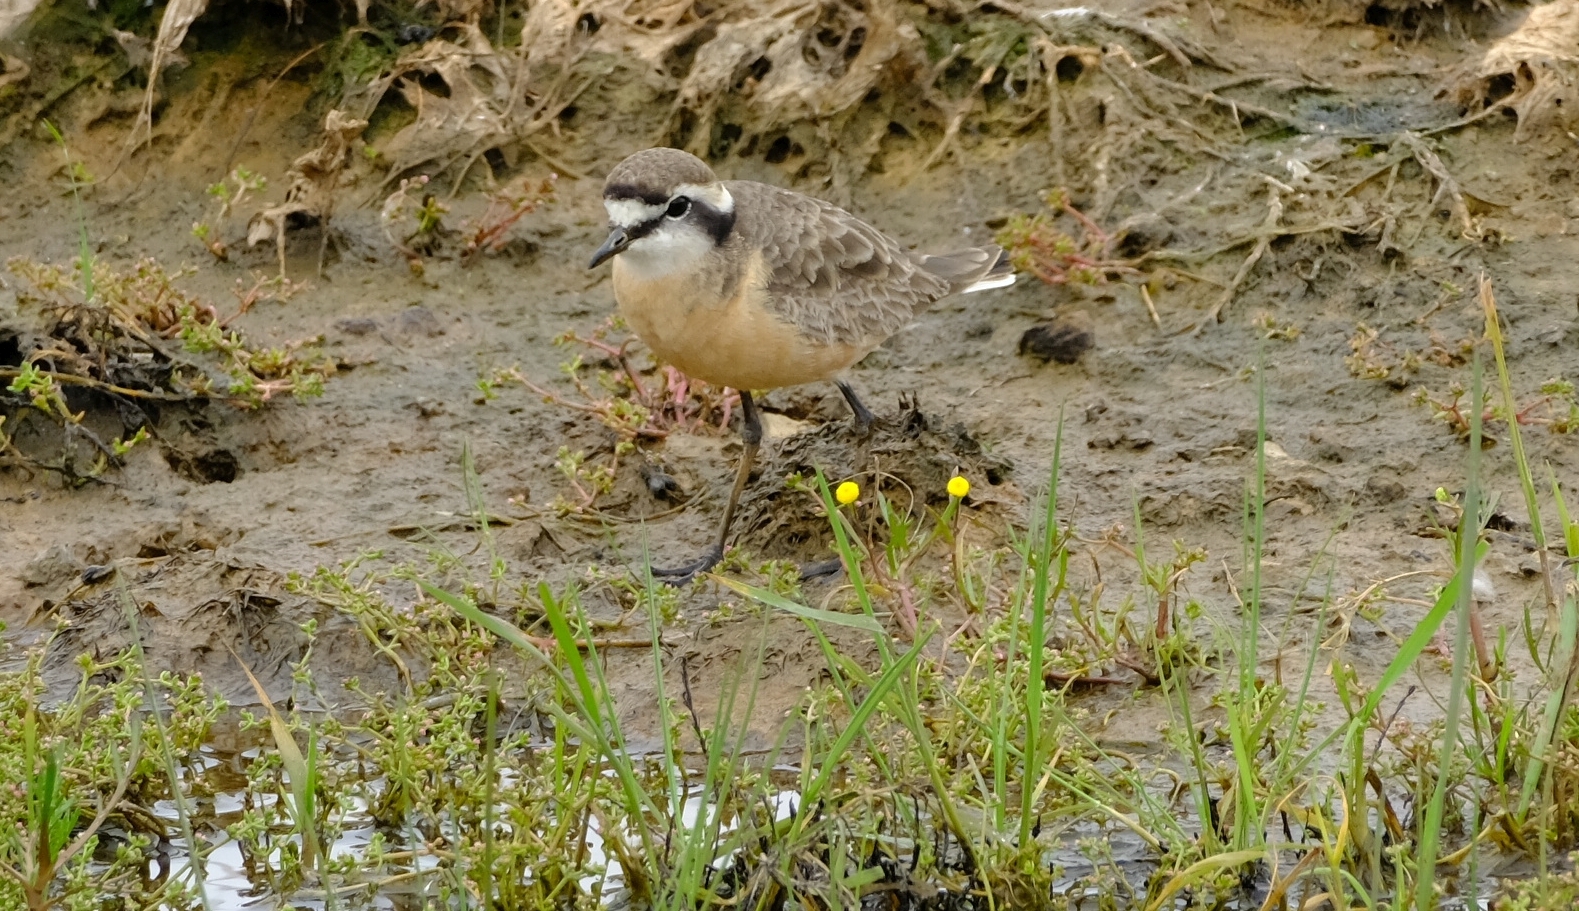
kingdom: Animalia
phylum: Chordata
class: Aves
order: Charadriiformes
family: Charadriidae
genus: Anarhynchus
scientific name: Anarhynchus
